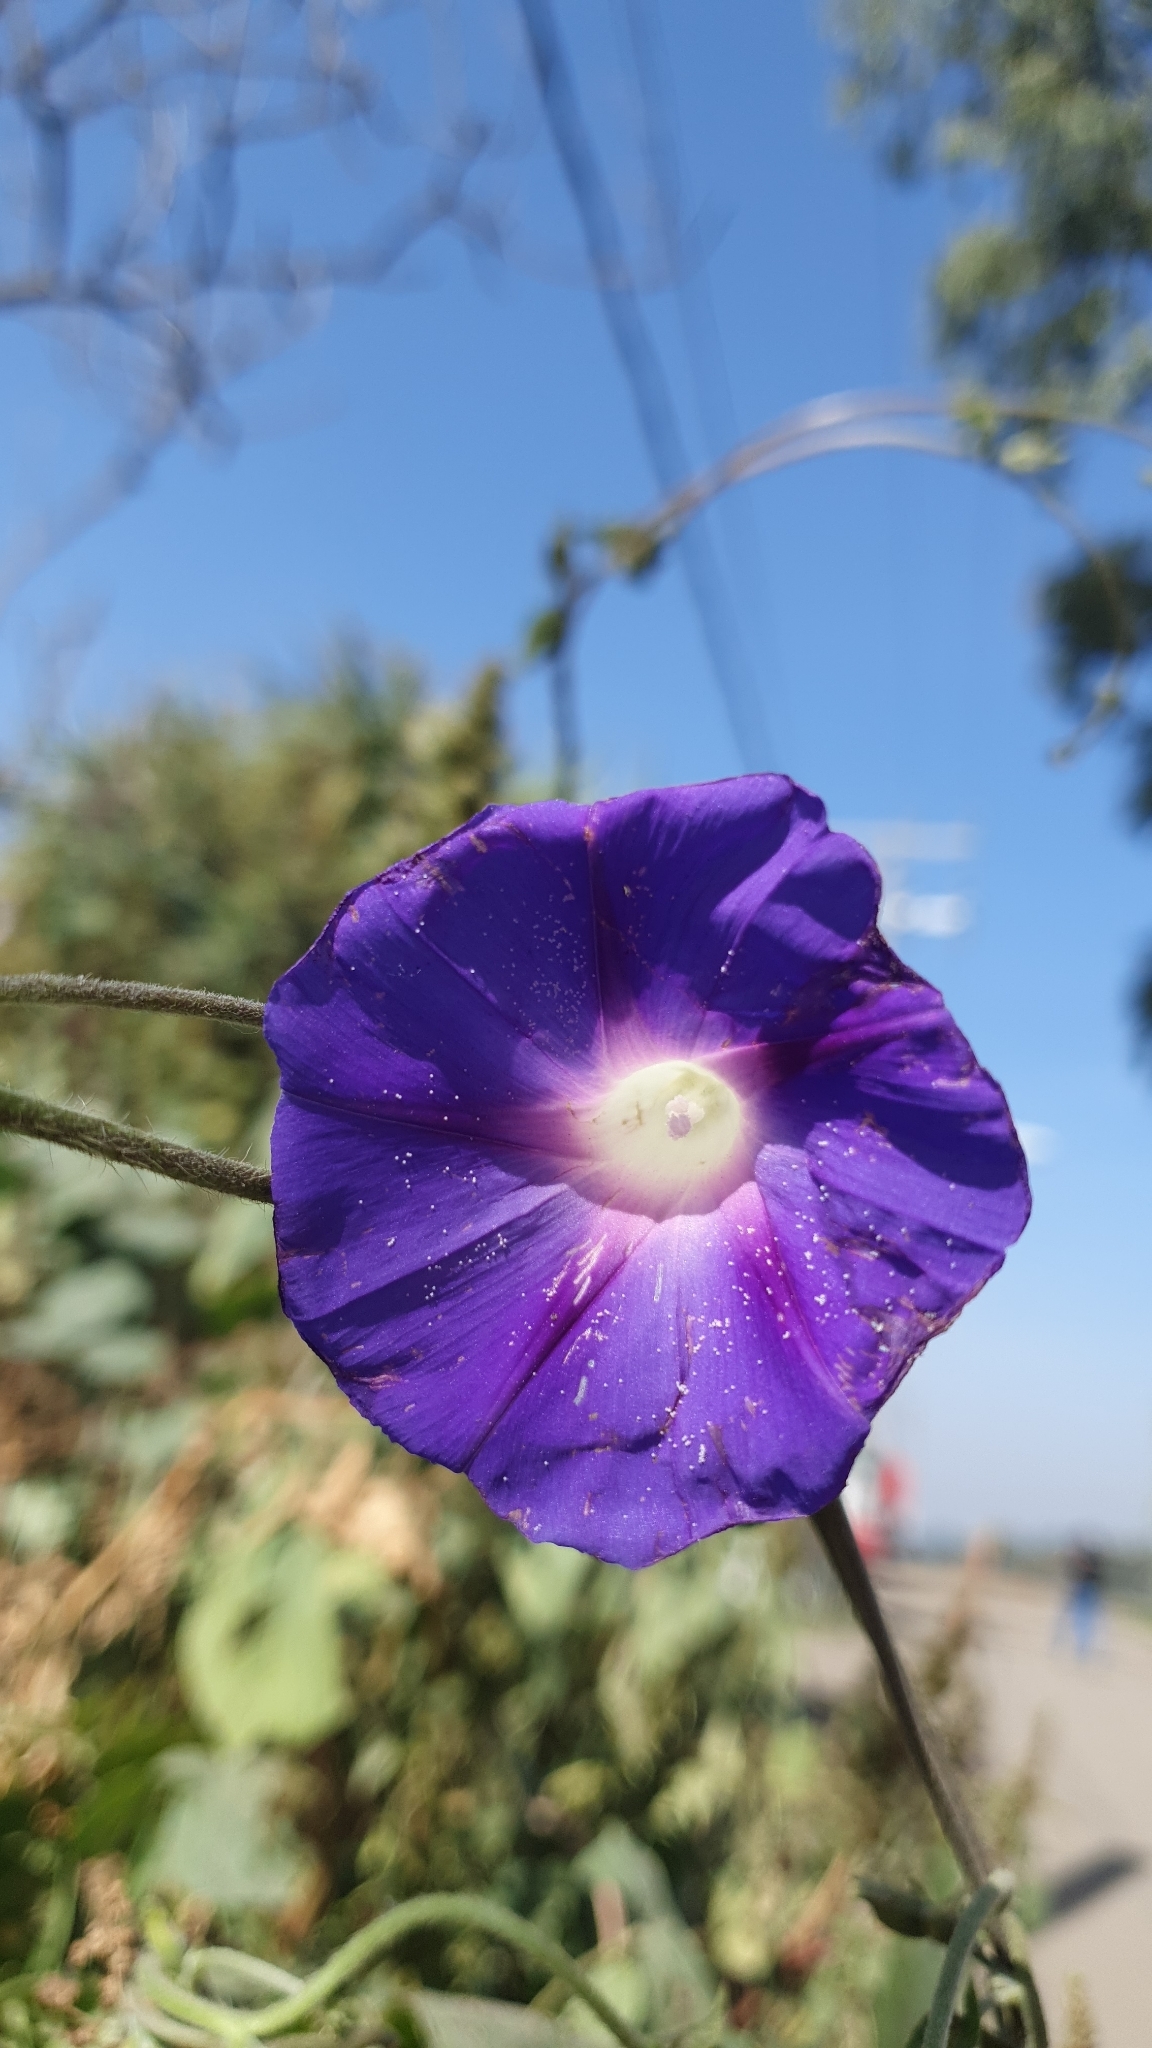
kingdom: Plantae
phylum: Tracheophyta
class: Magnoliopsida
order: Solanales
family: Convolvulaceae
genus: Ipomoea
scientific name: Ipomoea purpurea
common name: Common morning-glory
